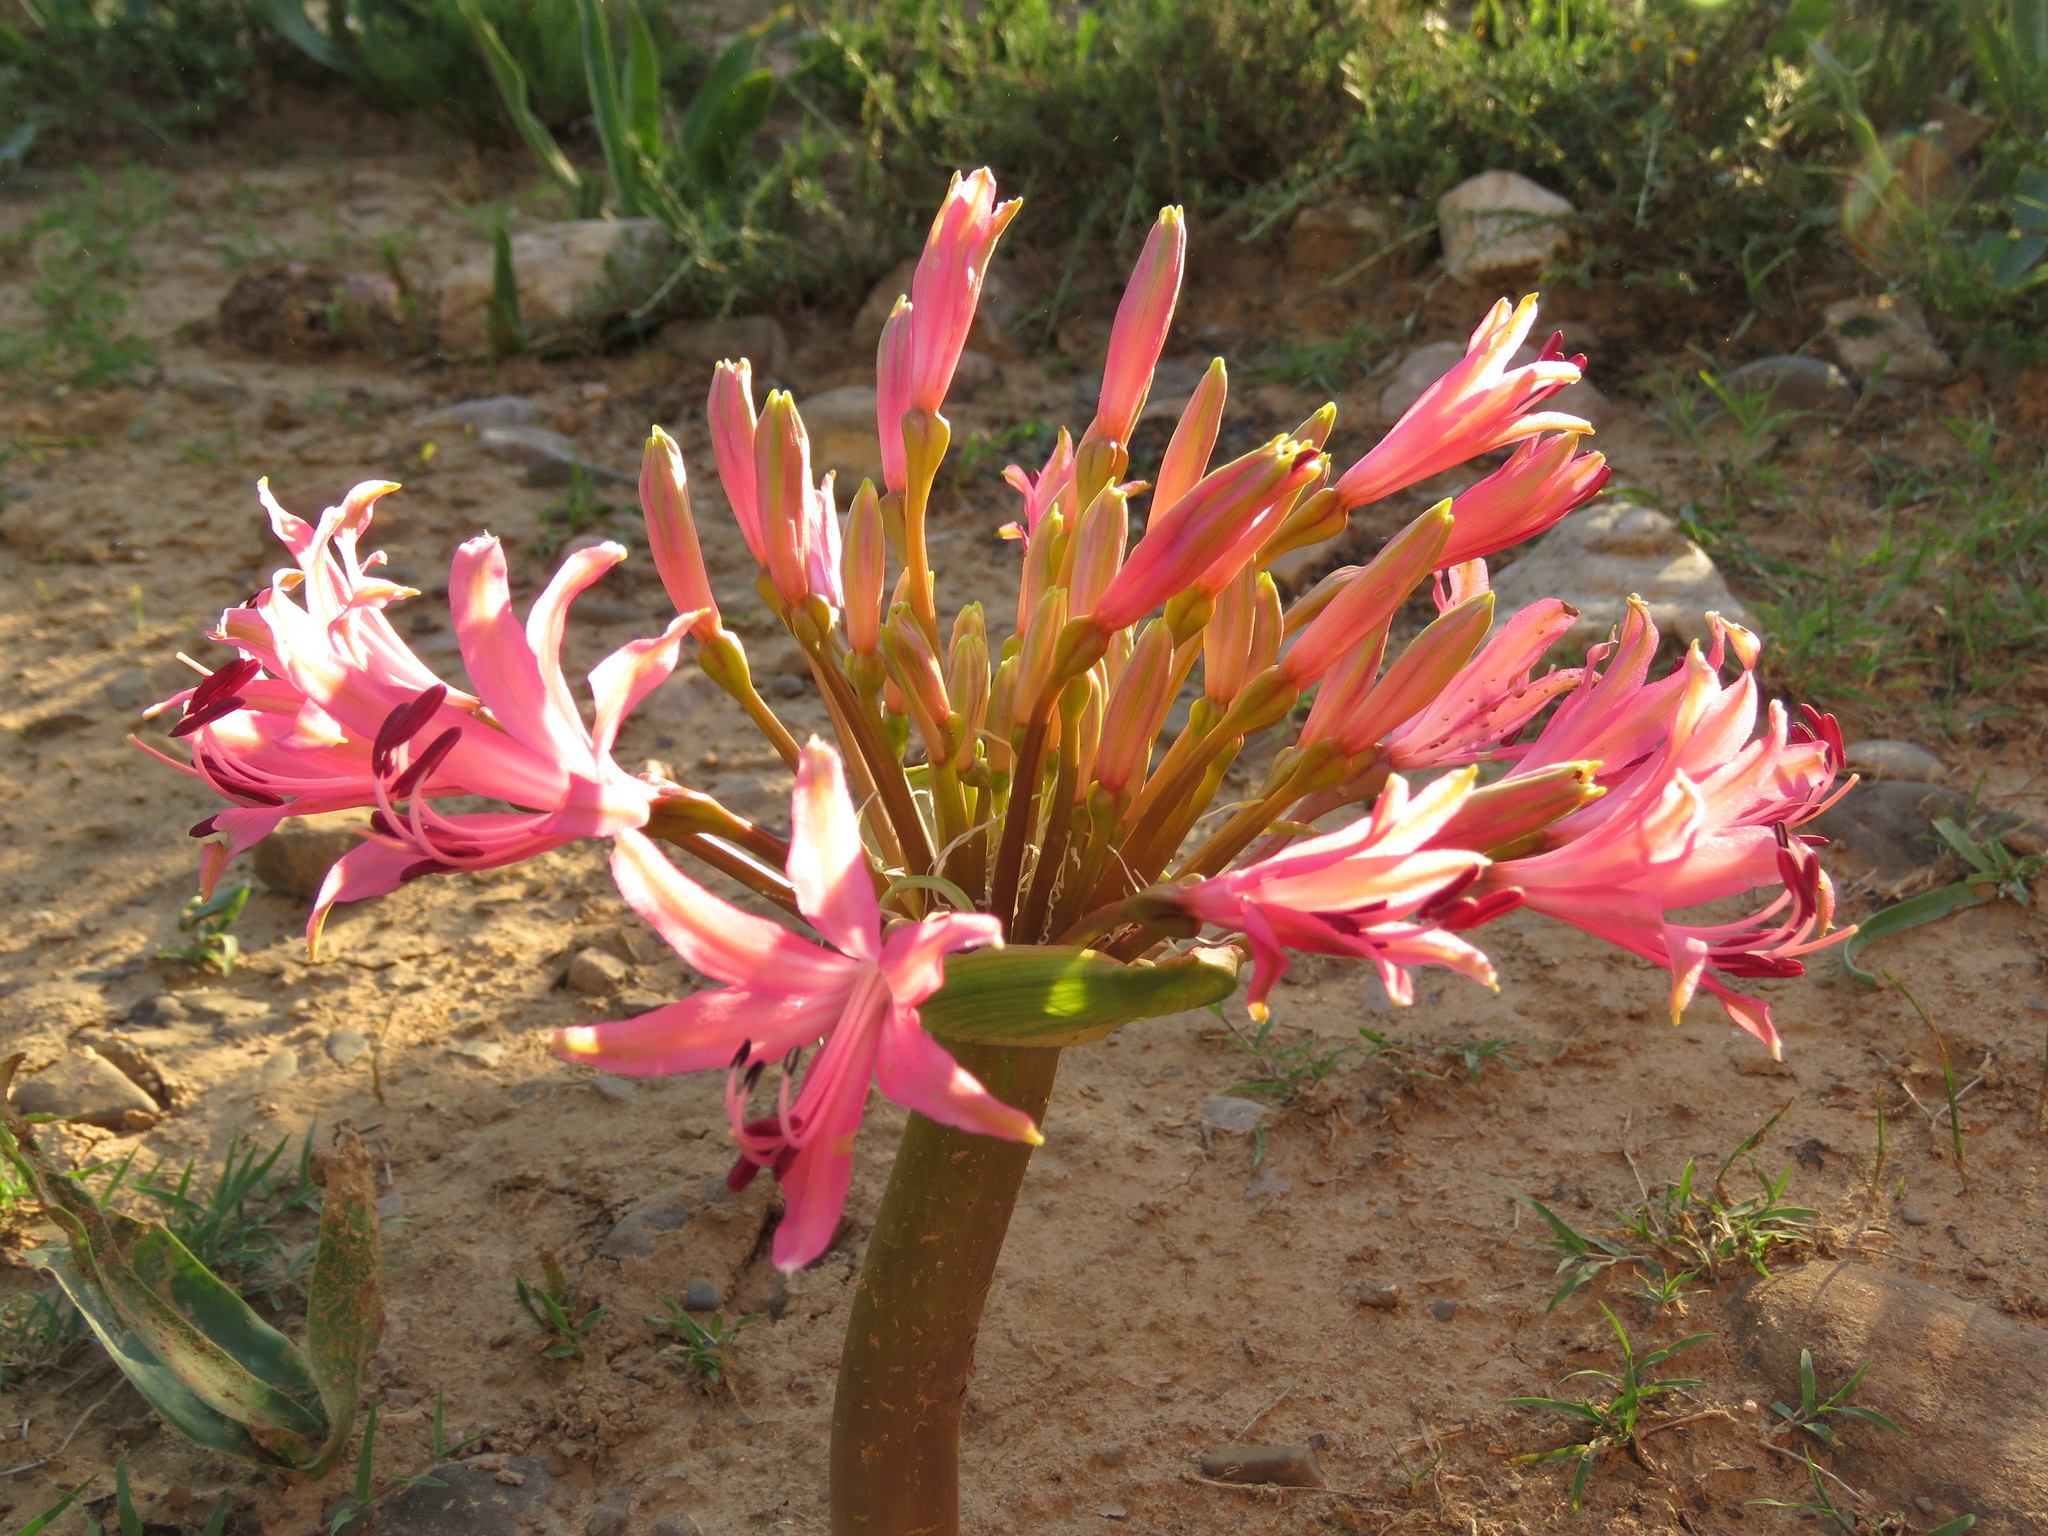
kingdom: Plantae
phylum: Tracheophyta
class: Liliopsida
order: Asparagales
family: Amaryllidaceae
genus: Brunsvigia
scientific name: Brunsvigia gregaria
